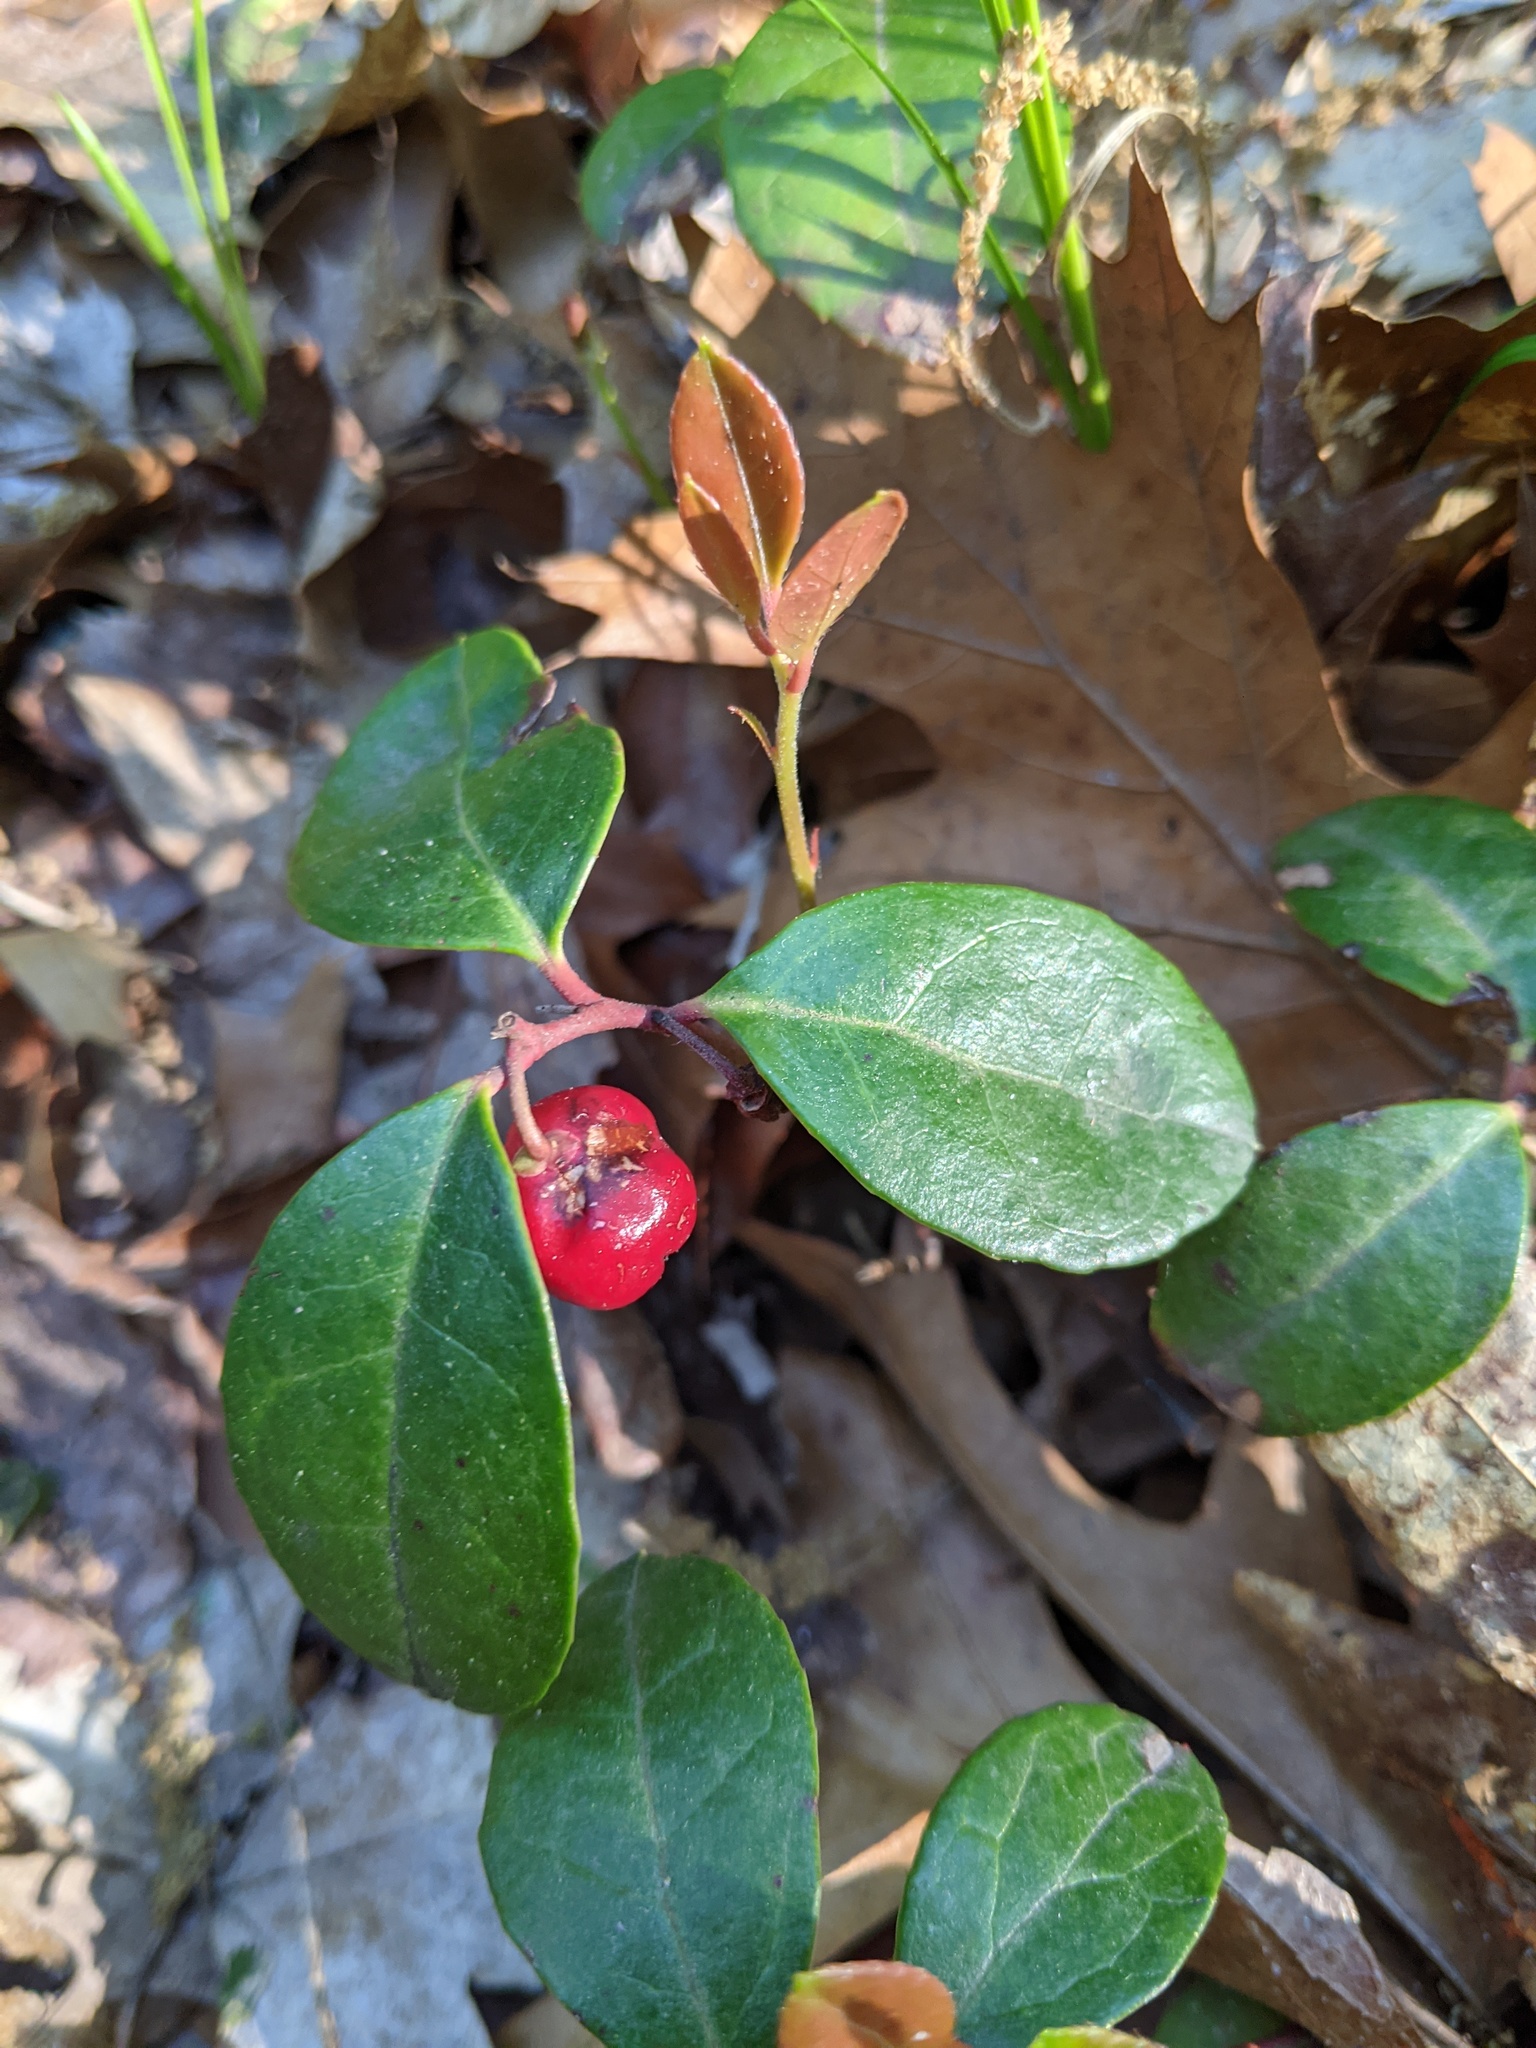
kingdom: Plantae
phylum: Tracheophyta
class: Magnoliopsida
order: Ericales
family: Ericaceae
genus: Gaultheria
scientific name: Gaultheria procumbens
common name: Checkerberry
